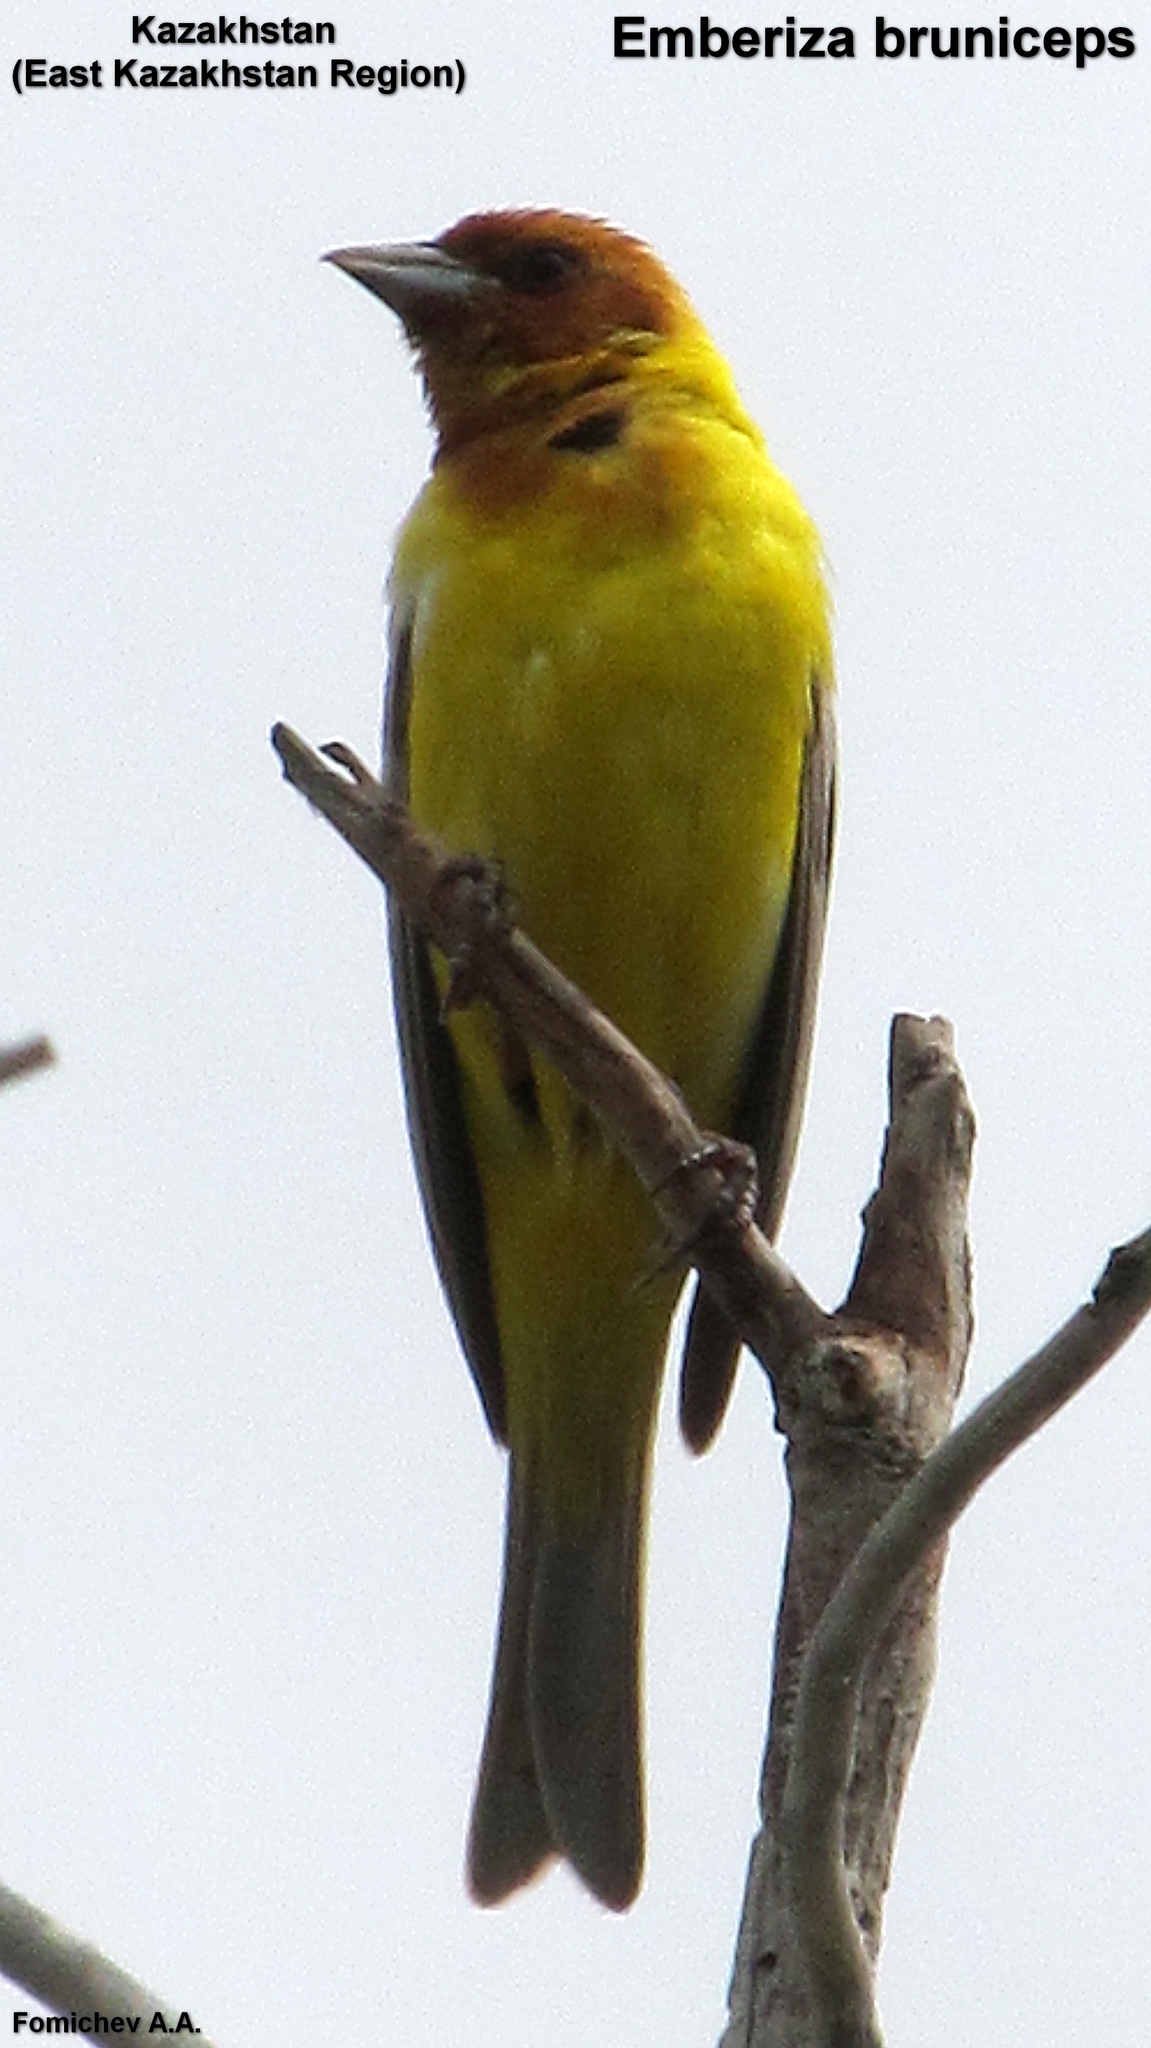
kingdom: Animalia
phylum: Chordata
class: Aves
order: Passeriformes
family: Emberizidae
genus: Emberiza
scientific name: Emberiza bruniceps
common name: Red-headed bunting
